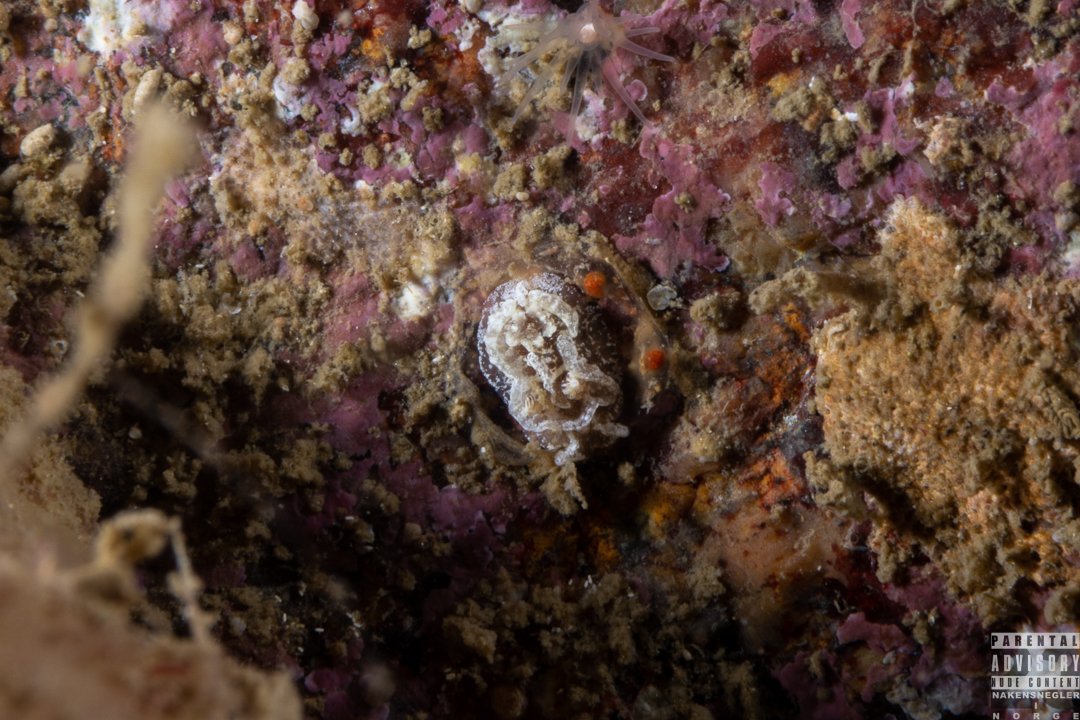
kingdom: Animalia
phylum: Mollusca
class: Gastropoda
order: Nudibranchia
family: Goniodorididae
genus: Pelagella
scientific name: Pelagella castanea
